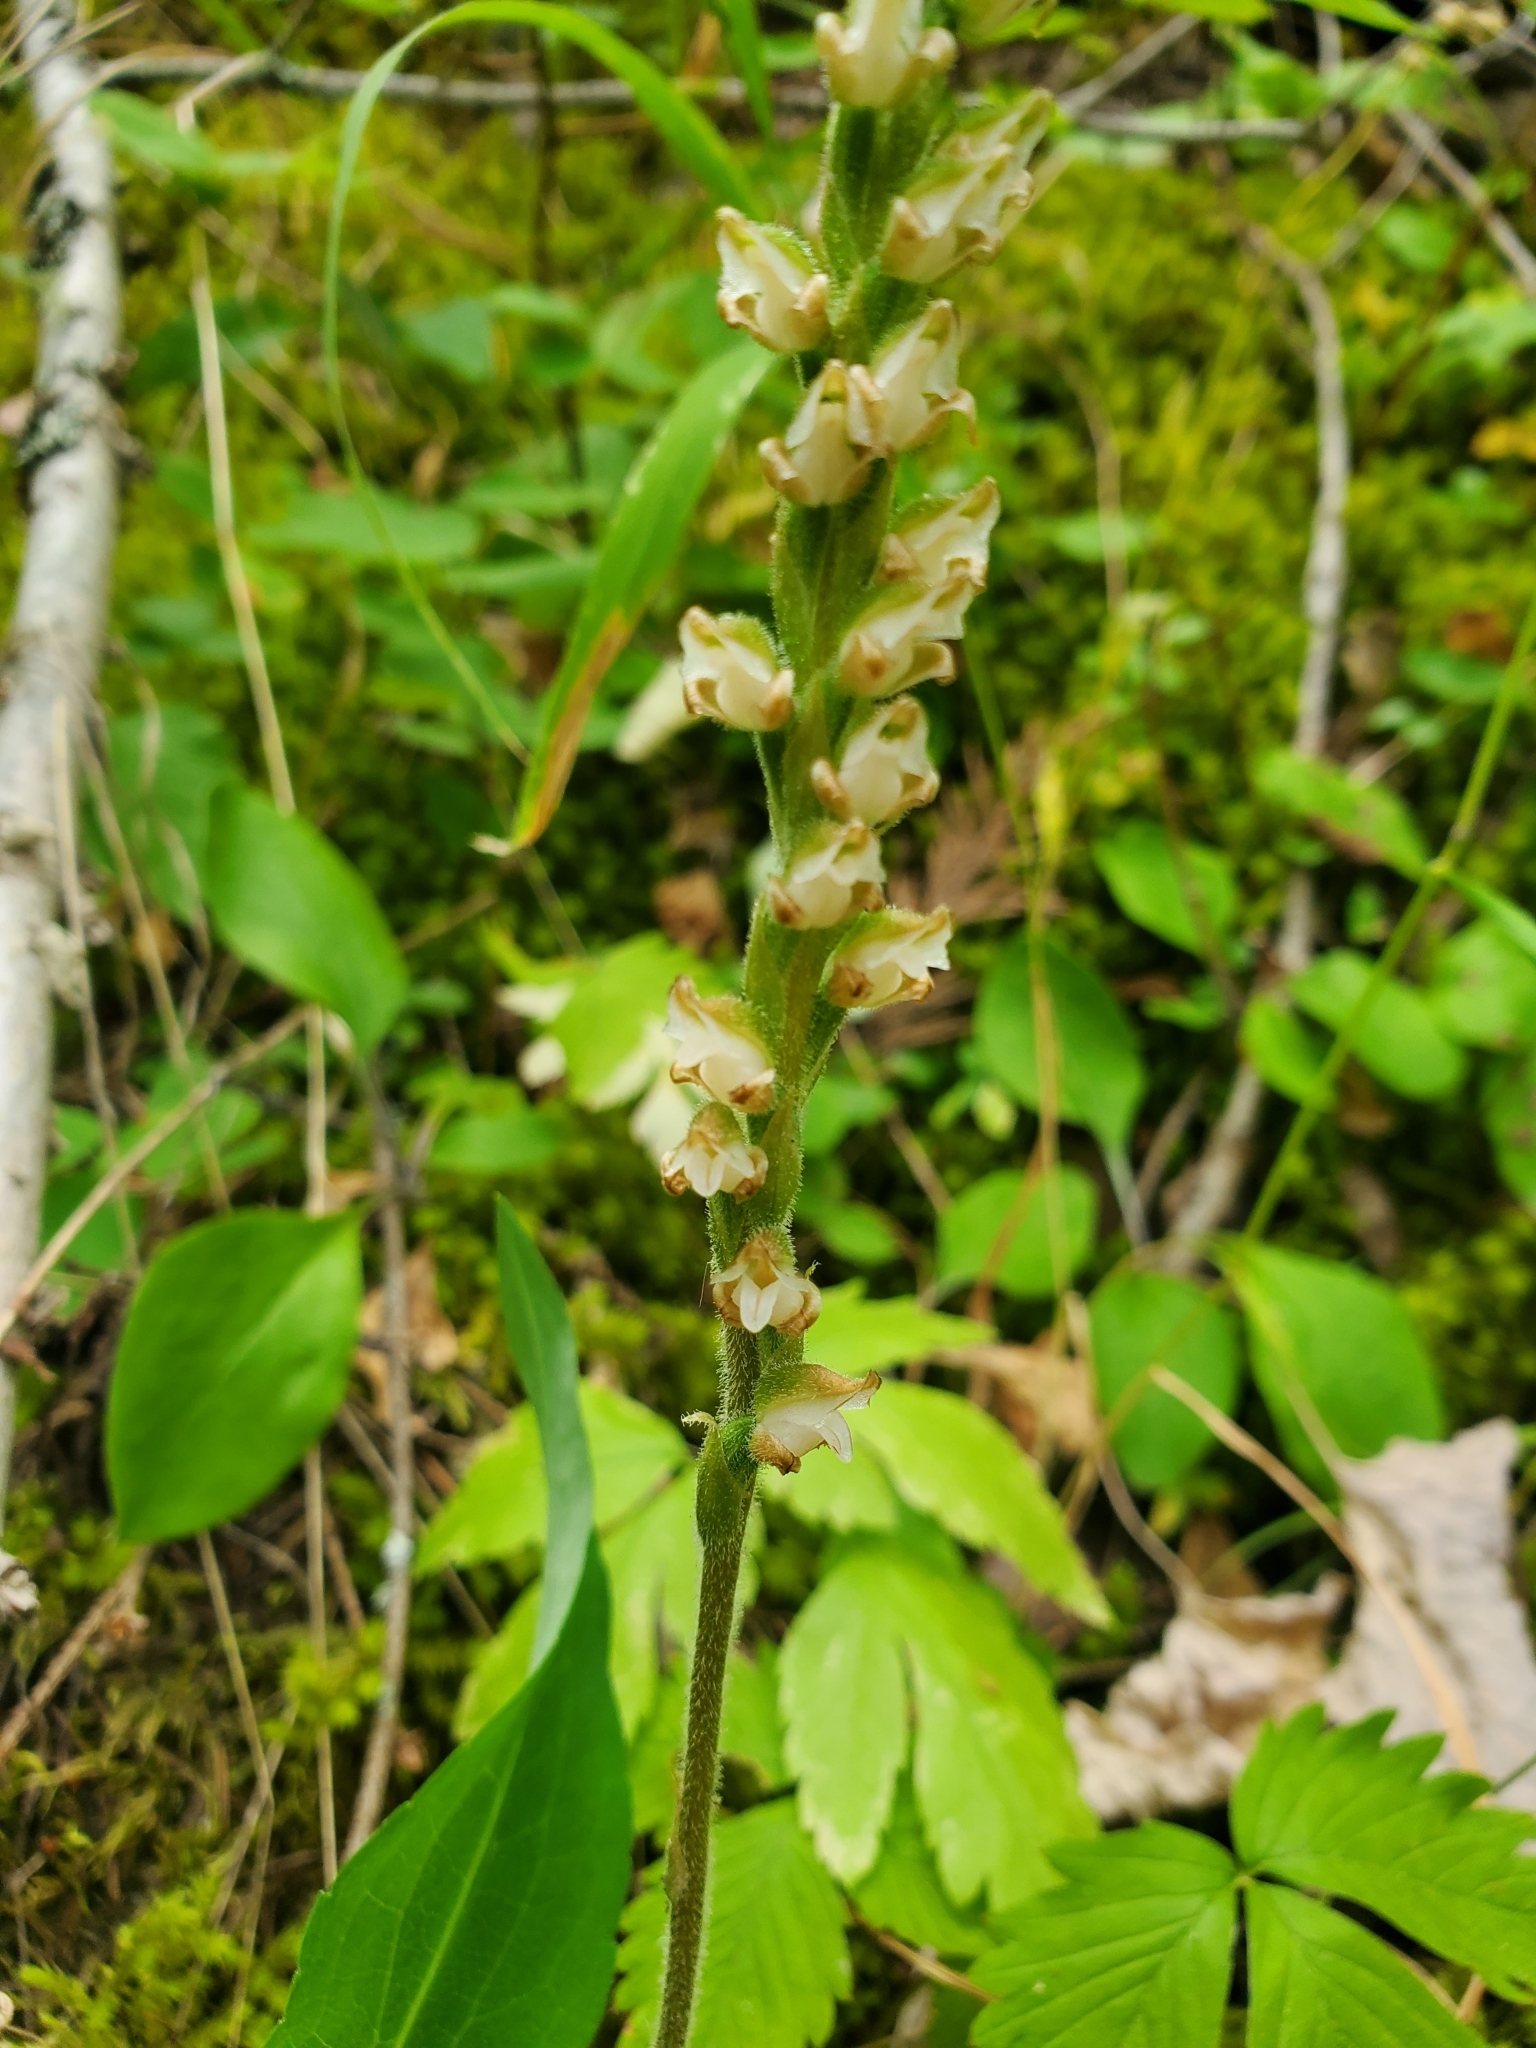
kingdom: Plantae
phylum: Tracheophyta
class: Liliopsida
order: Asparagales
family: Orchidaceae
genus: Goodyera
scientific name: Goodyera oblongifolia
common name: Giant rattlesnake-plantain
